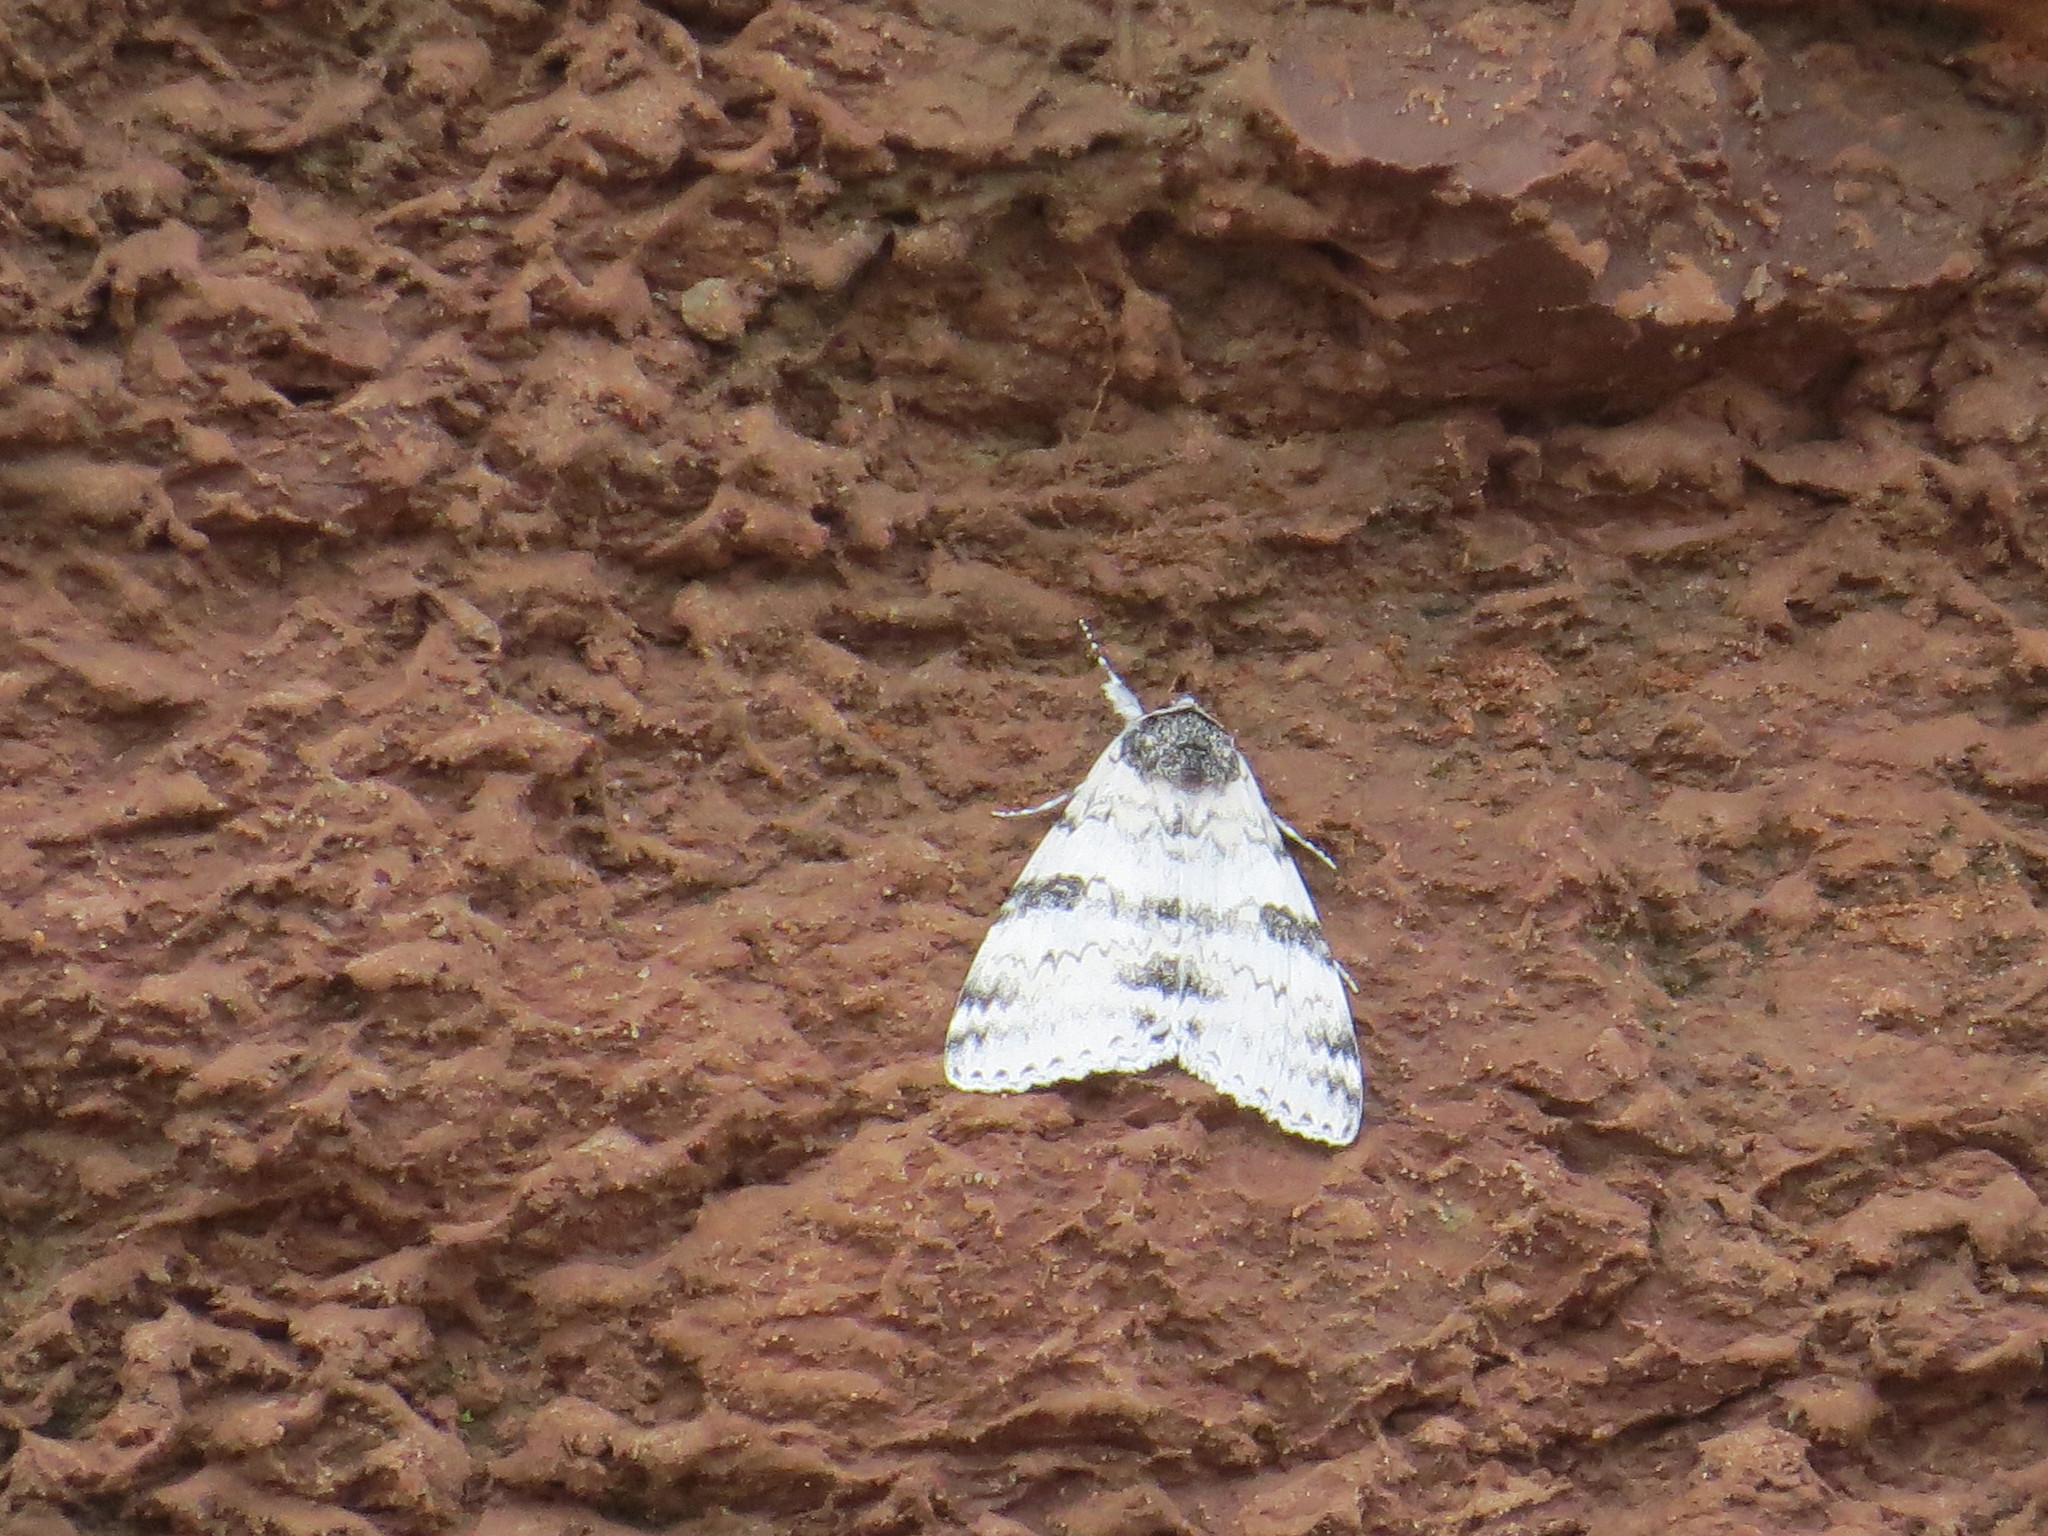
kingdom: Animalia
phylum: Arthropoda
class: Insecta
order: Lepidoptera
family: Erebidae
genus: Catocala
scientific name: Catocala relicta
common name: White underwing
